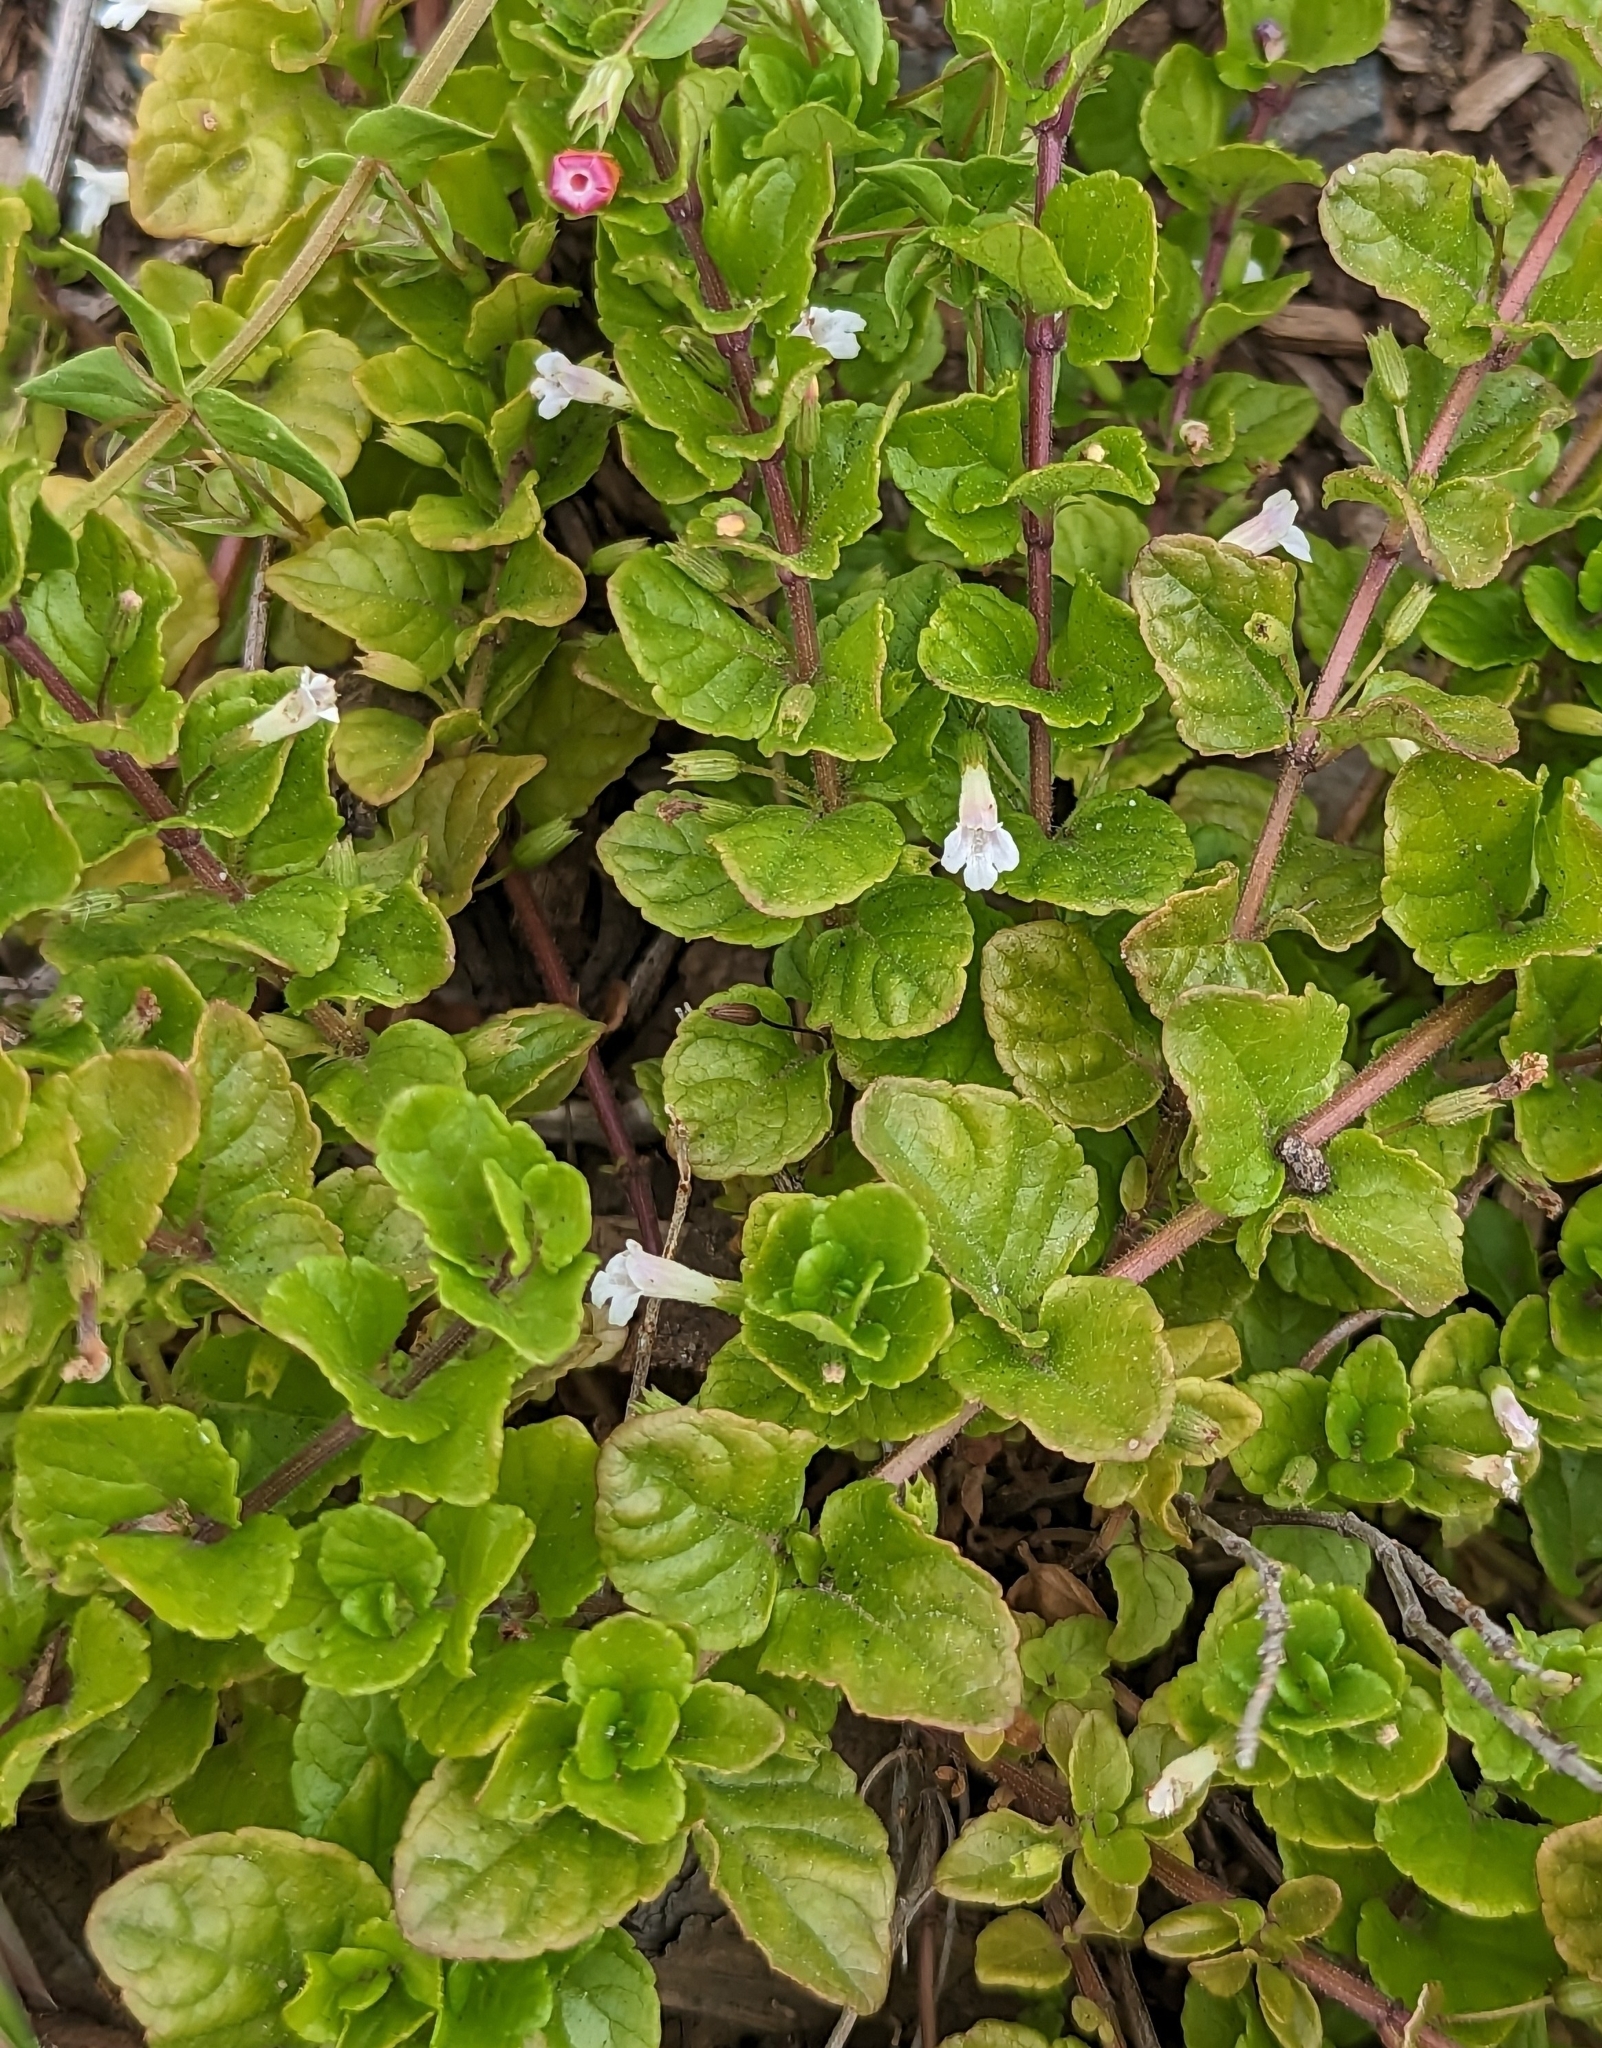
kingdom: Plantae
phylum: Tracheophyta
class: Magnoliopsida
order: Lamiales
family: Lamiaceae
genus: Micromeria
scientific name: Micromeria douglasii
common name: Yerba buena
